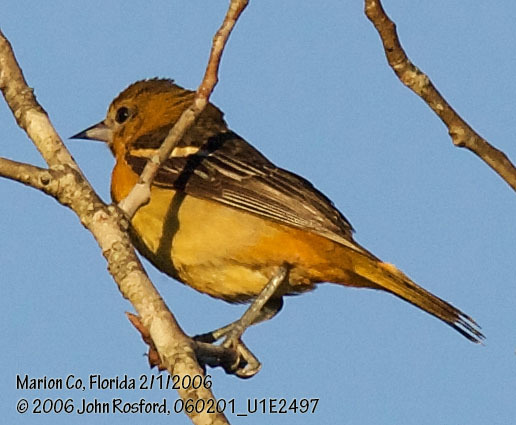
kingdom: Animalia
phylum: Chordata
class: Aves
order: Passeriformes
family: Icteridae
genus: Icterus
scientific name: Icterus galbula
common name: Baltimore oriole
